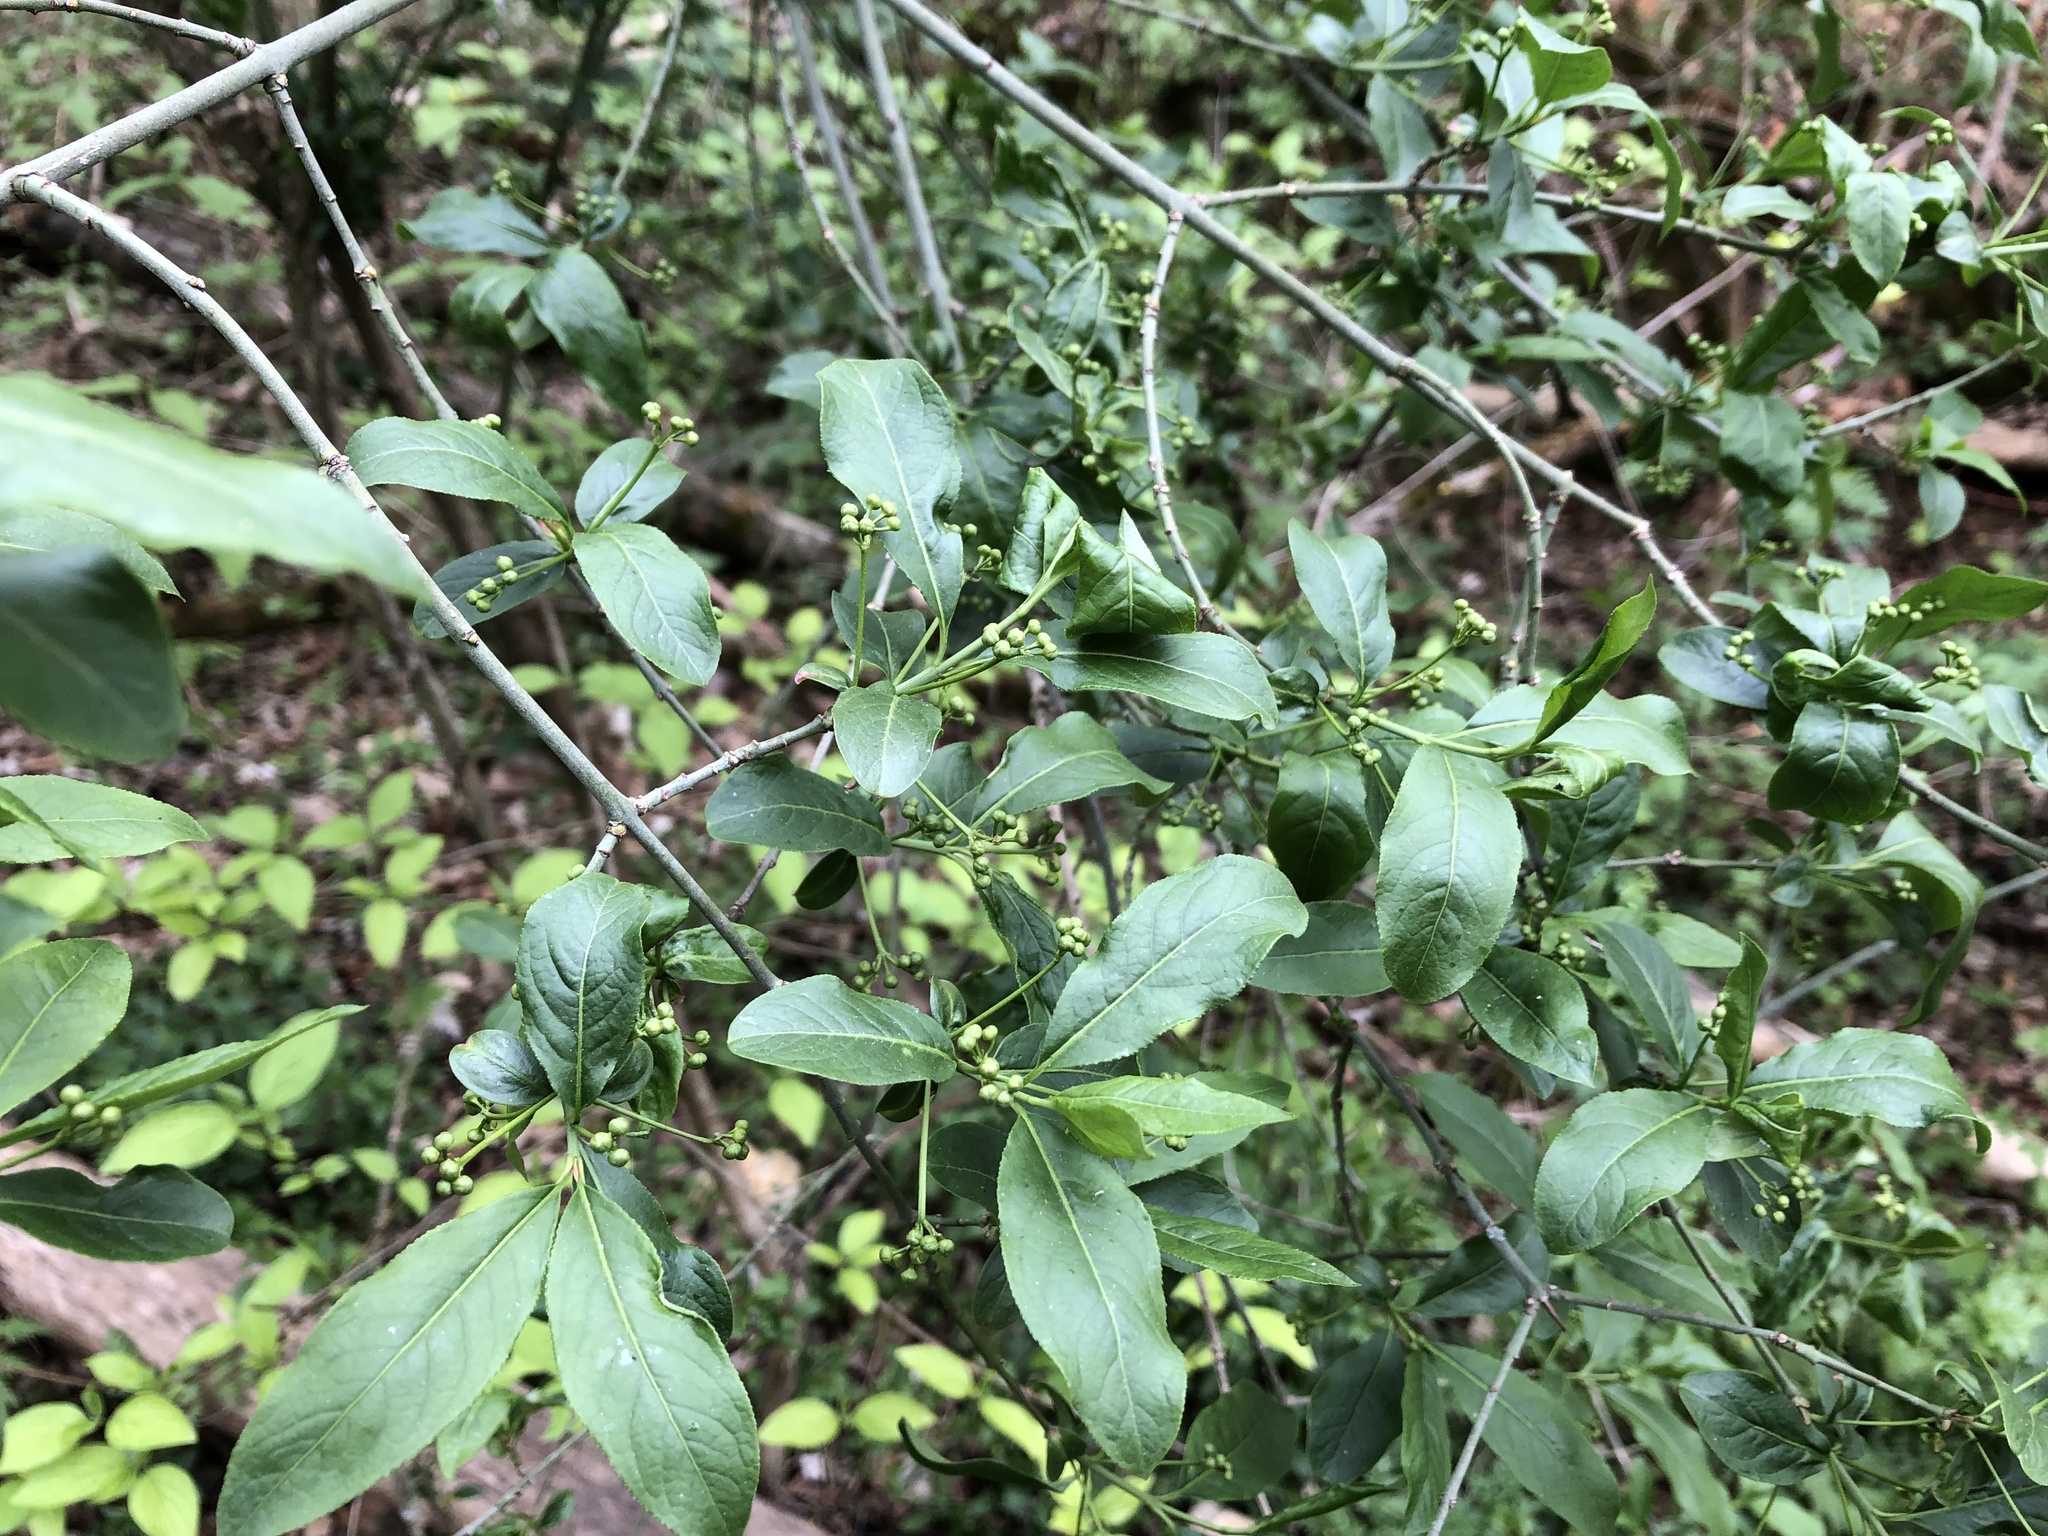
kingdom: Plantae
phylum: Tracheophyta
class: Magnoliopsida
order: Celastrales
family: Celastraceae
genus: Euonymus
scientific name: Euonymus europaeus
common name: Spindle
